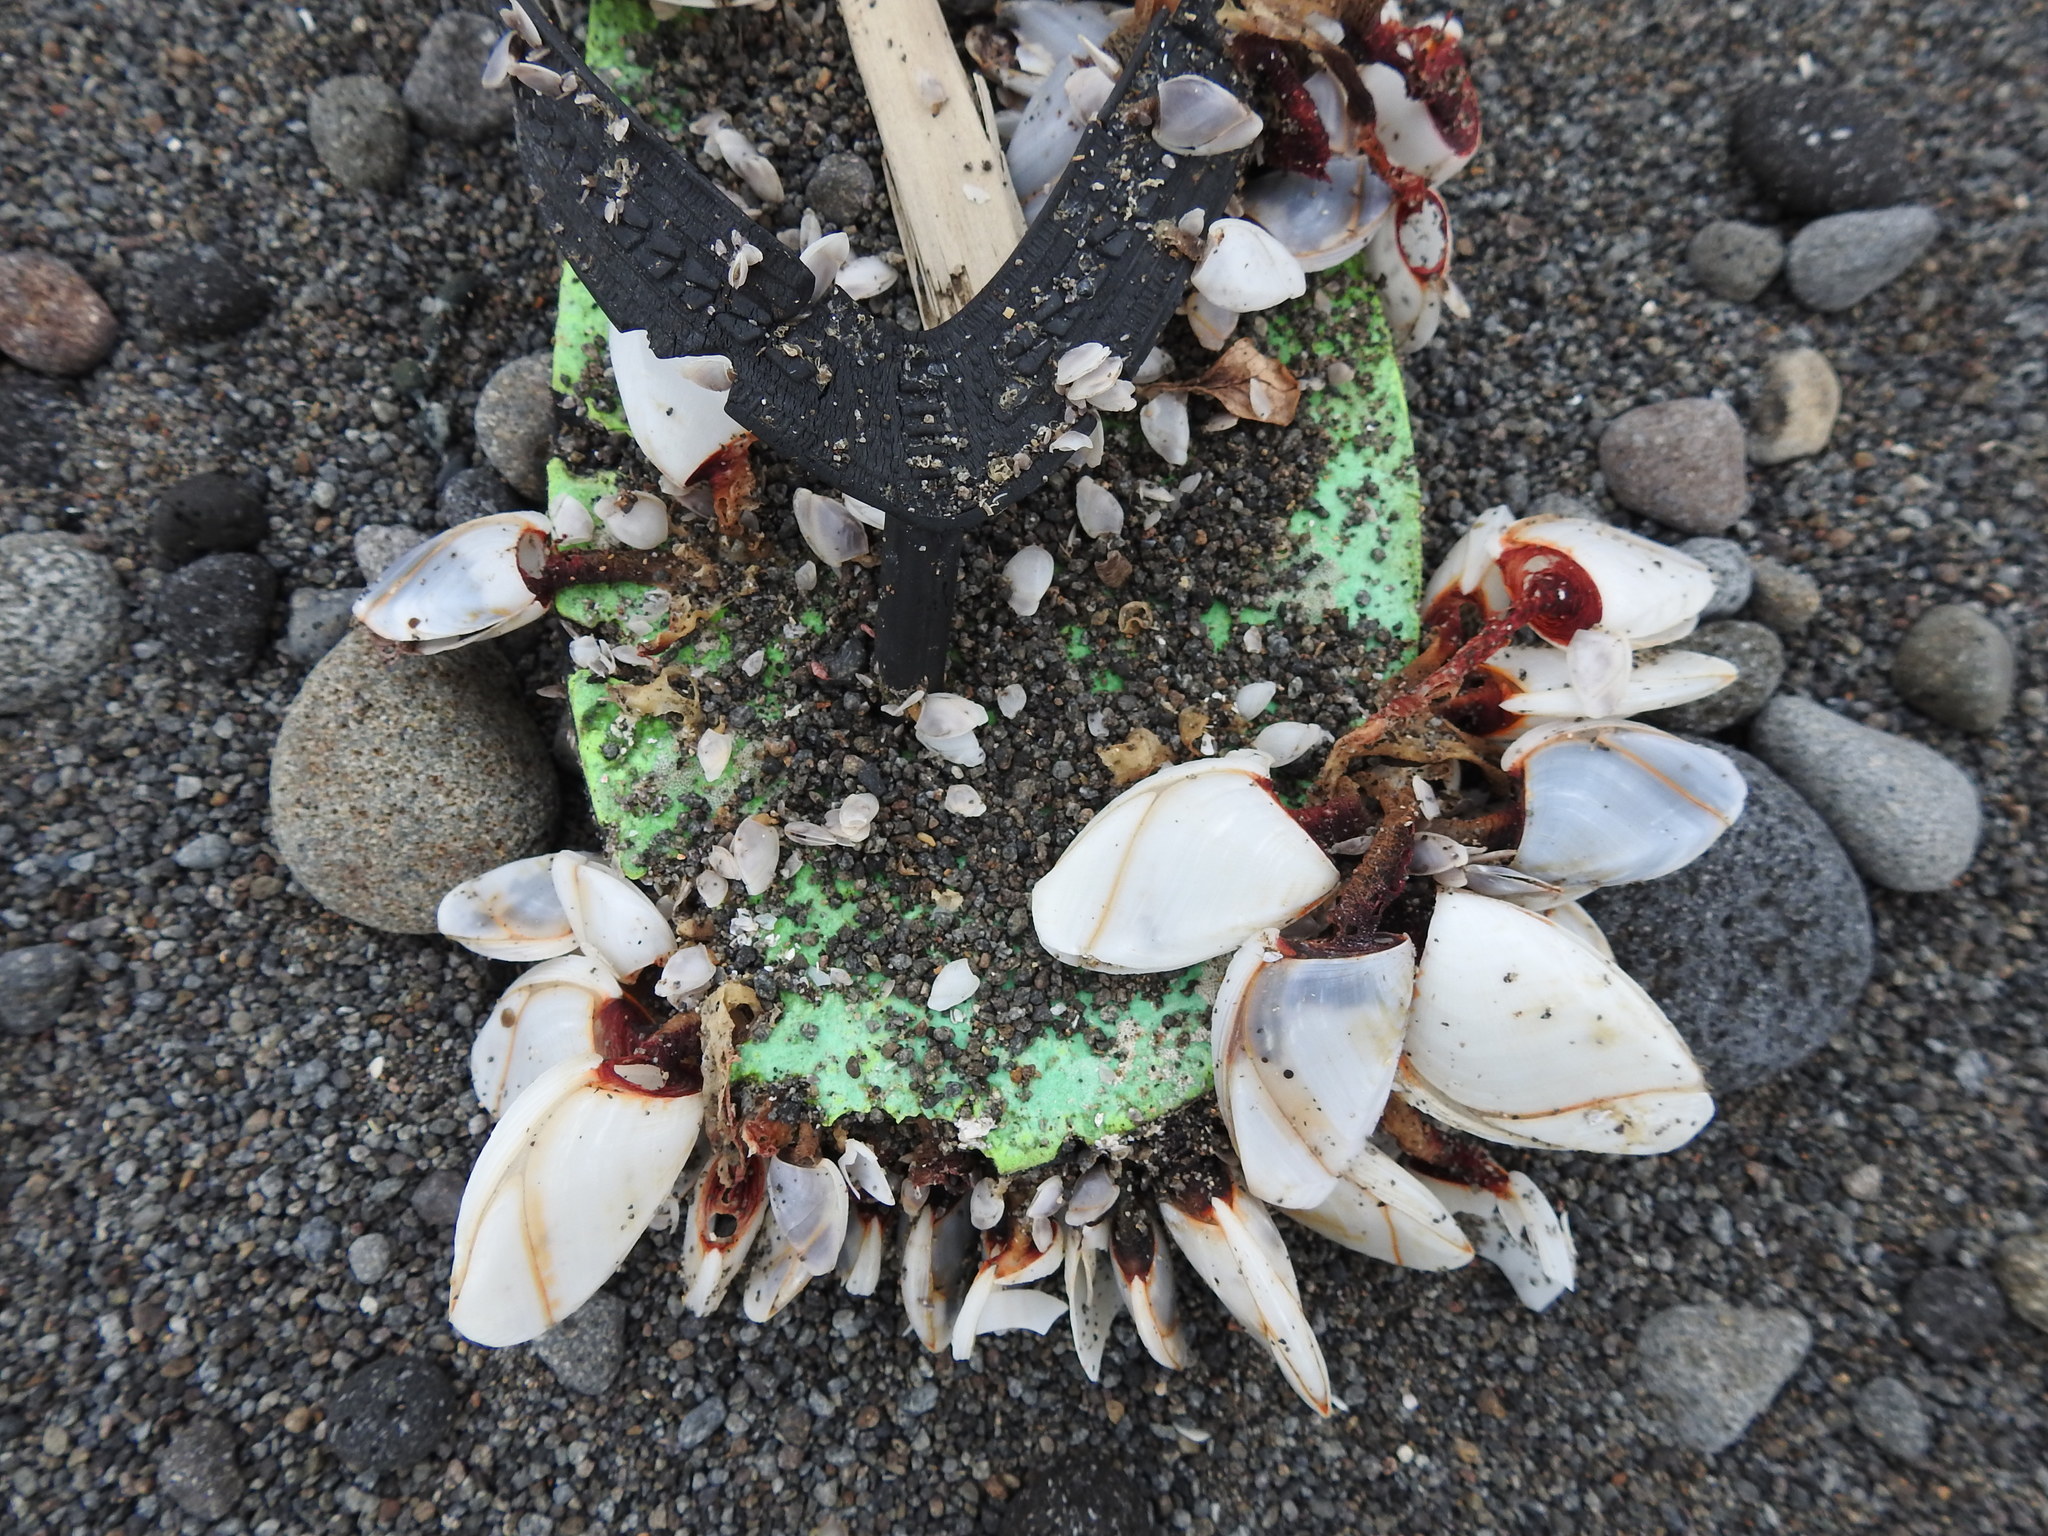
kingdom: Animalia
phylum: Arthropoda
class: Maxillopoda
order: Pedunculata
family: Lepadidae
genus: Lepas
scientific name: Lepas anatifera
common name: Common goose barnacle
